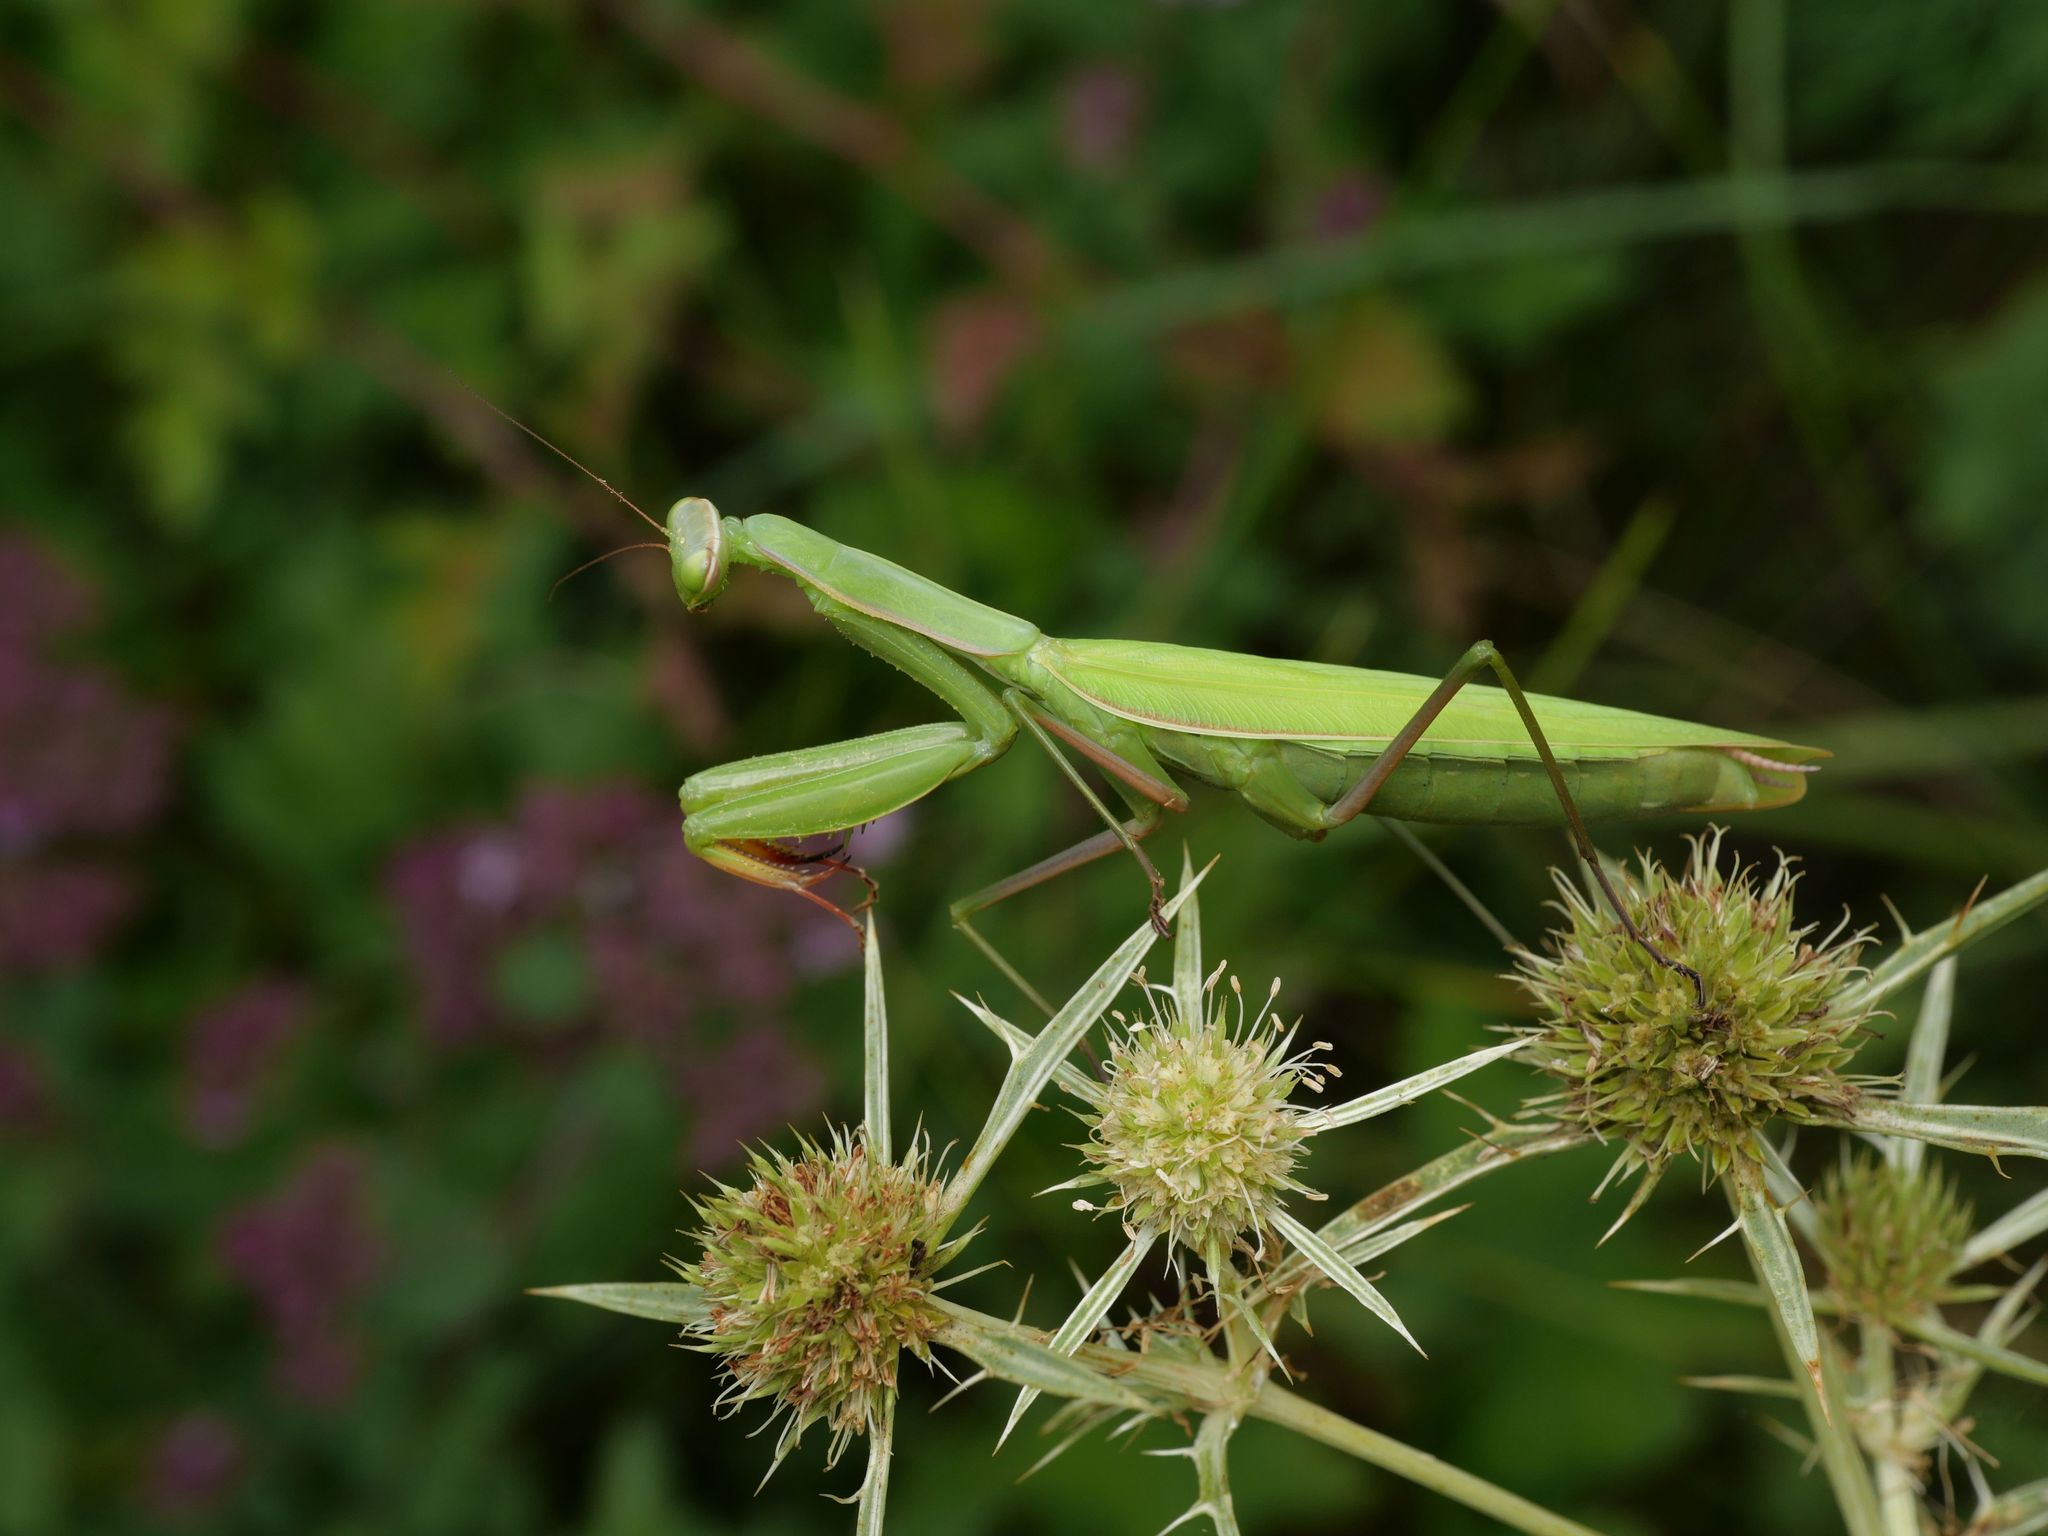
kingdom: Animalia
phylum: Arthropoda
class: Insecta
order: Mantodea
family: Mantidae
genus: Mantis
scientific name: Mantis religiosa
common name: Praying mantis
